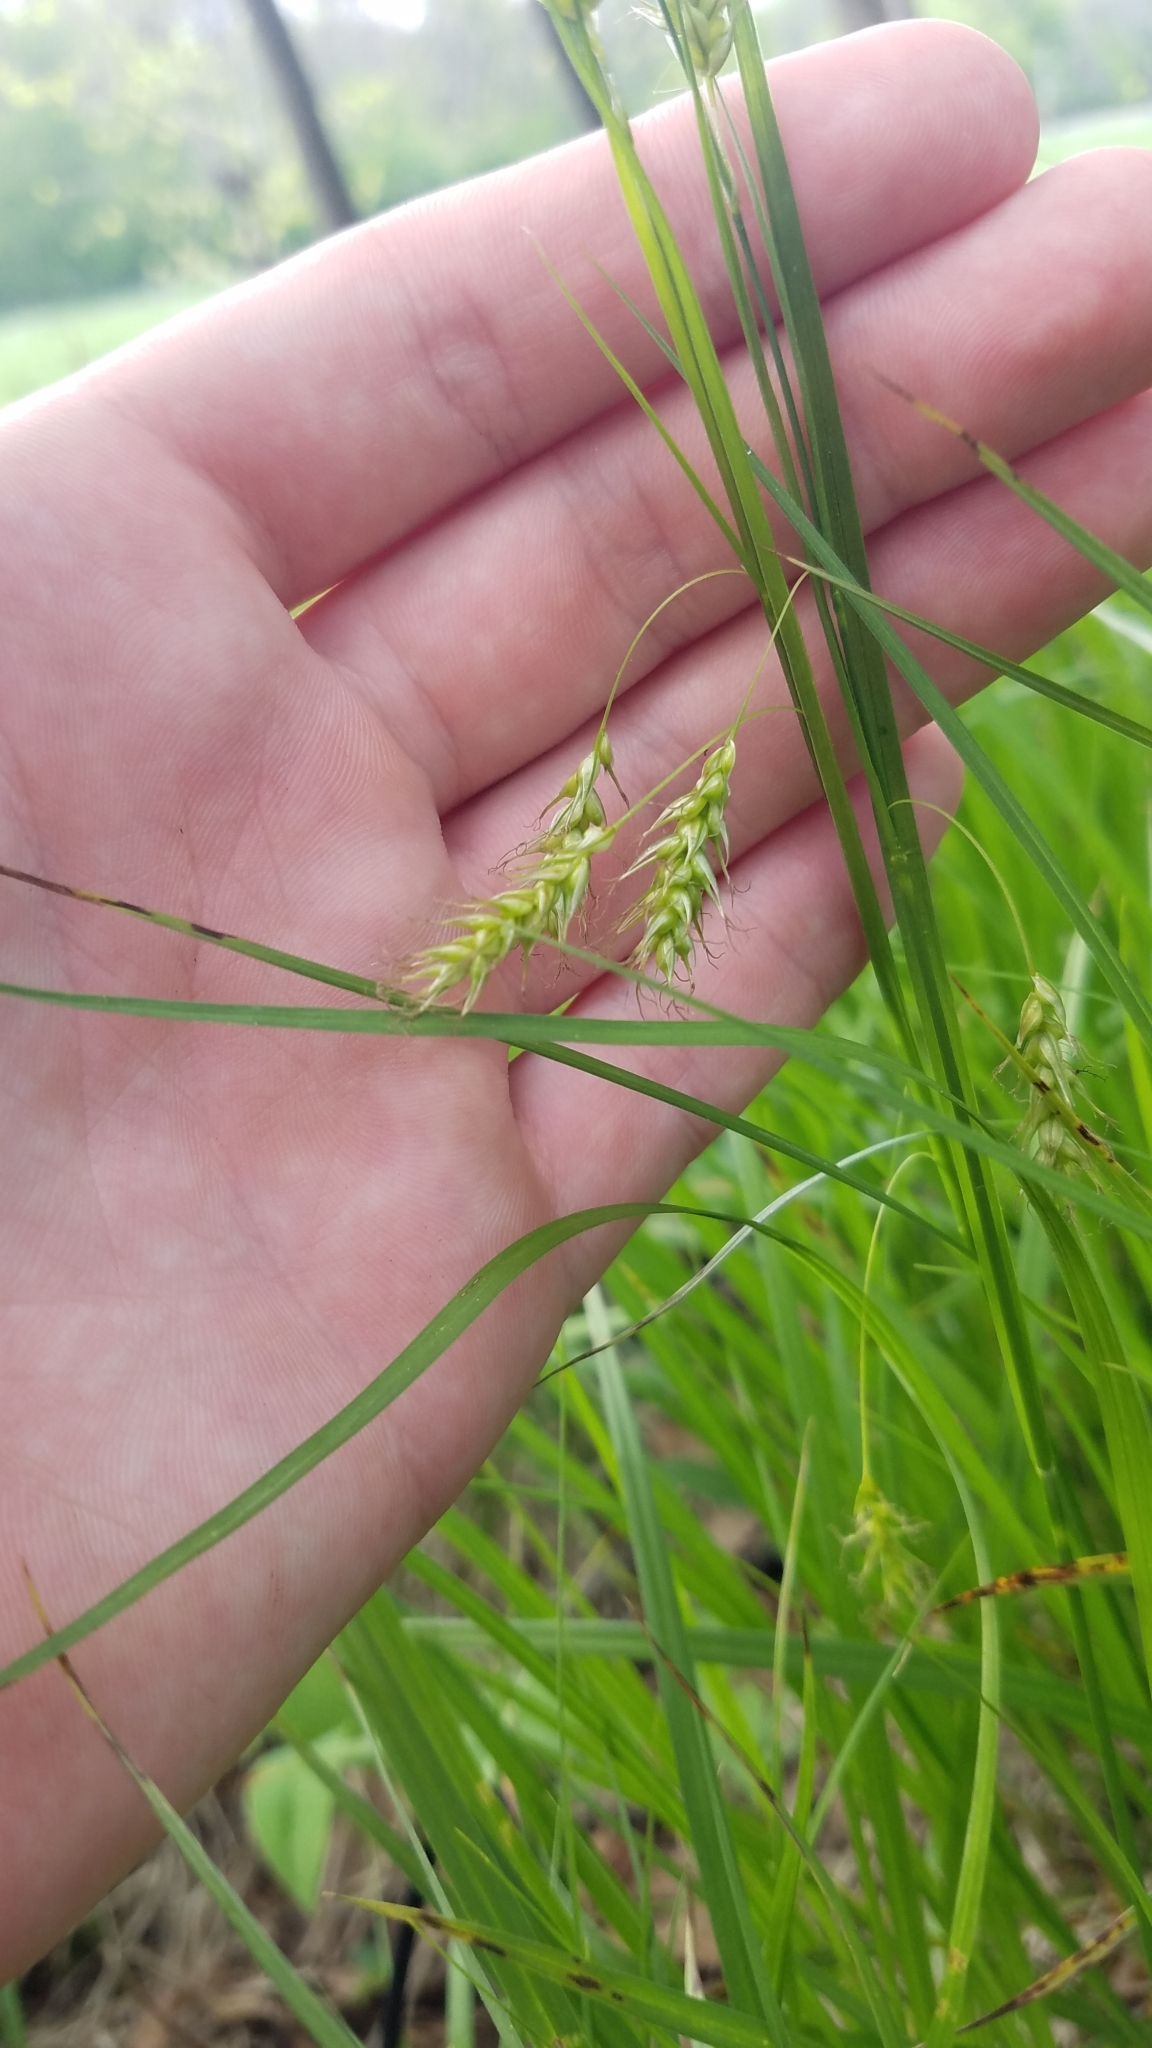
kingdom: Plantae
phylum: Tracheophyta
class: Liliopsida
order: Poales
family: Cyperaceae
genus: Carex
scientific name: Carex sprengelii
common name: Long-beaked sedge
